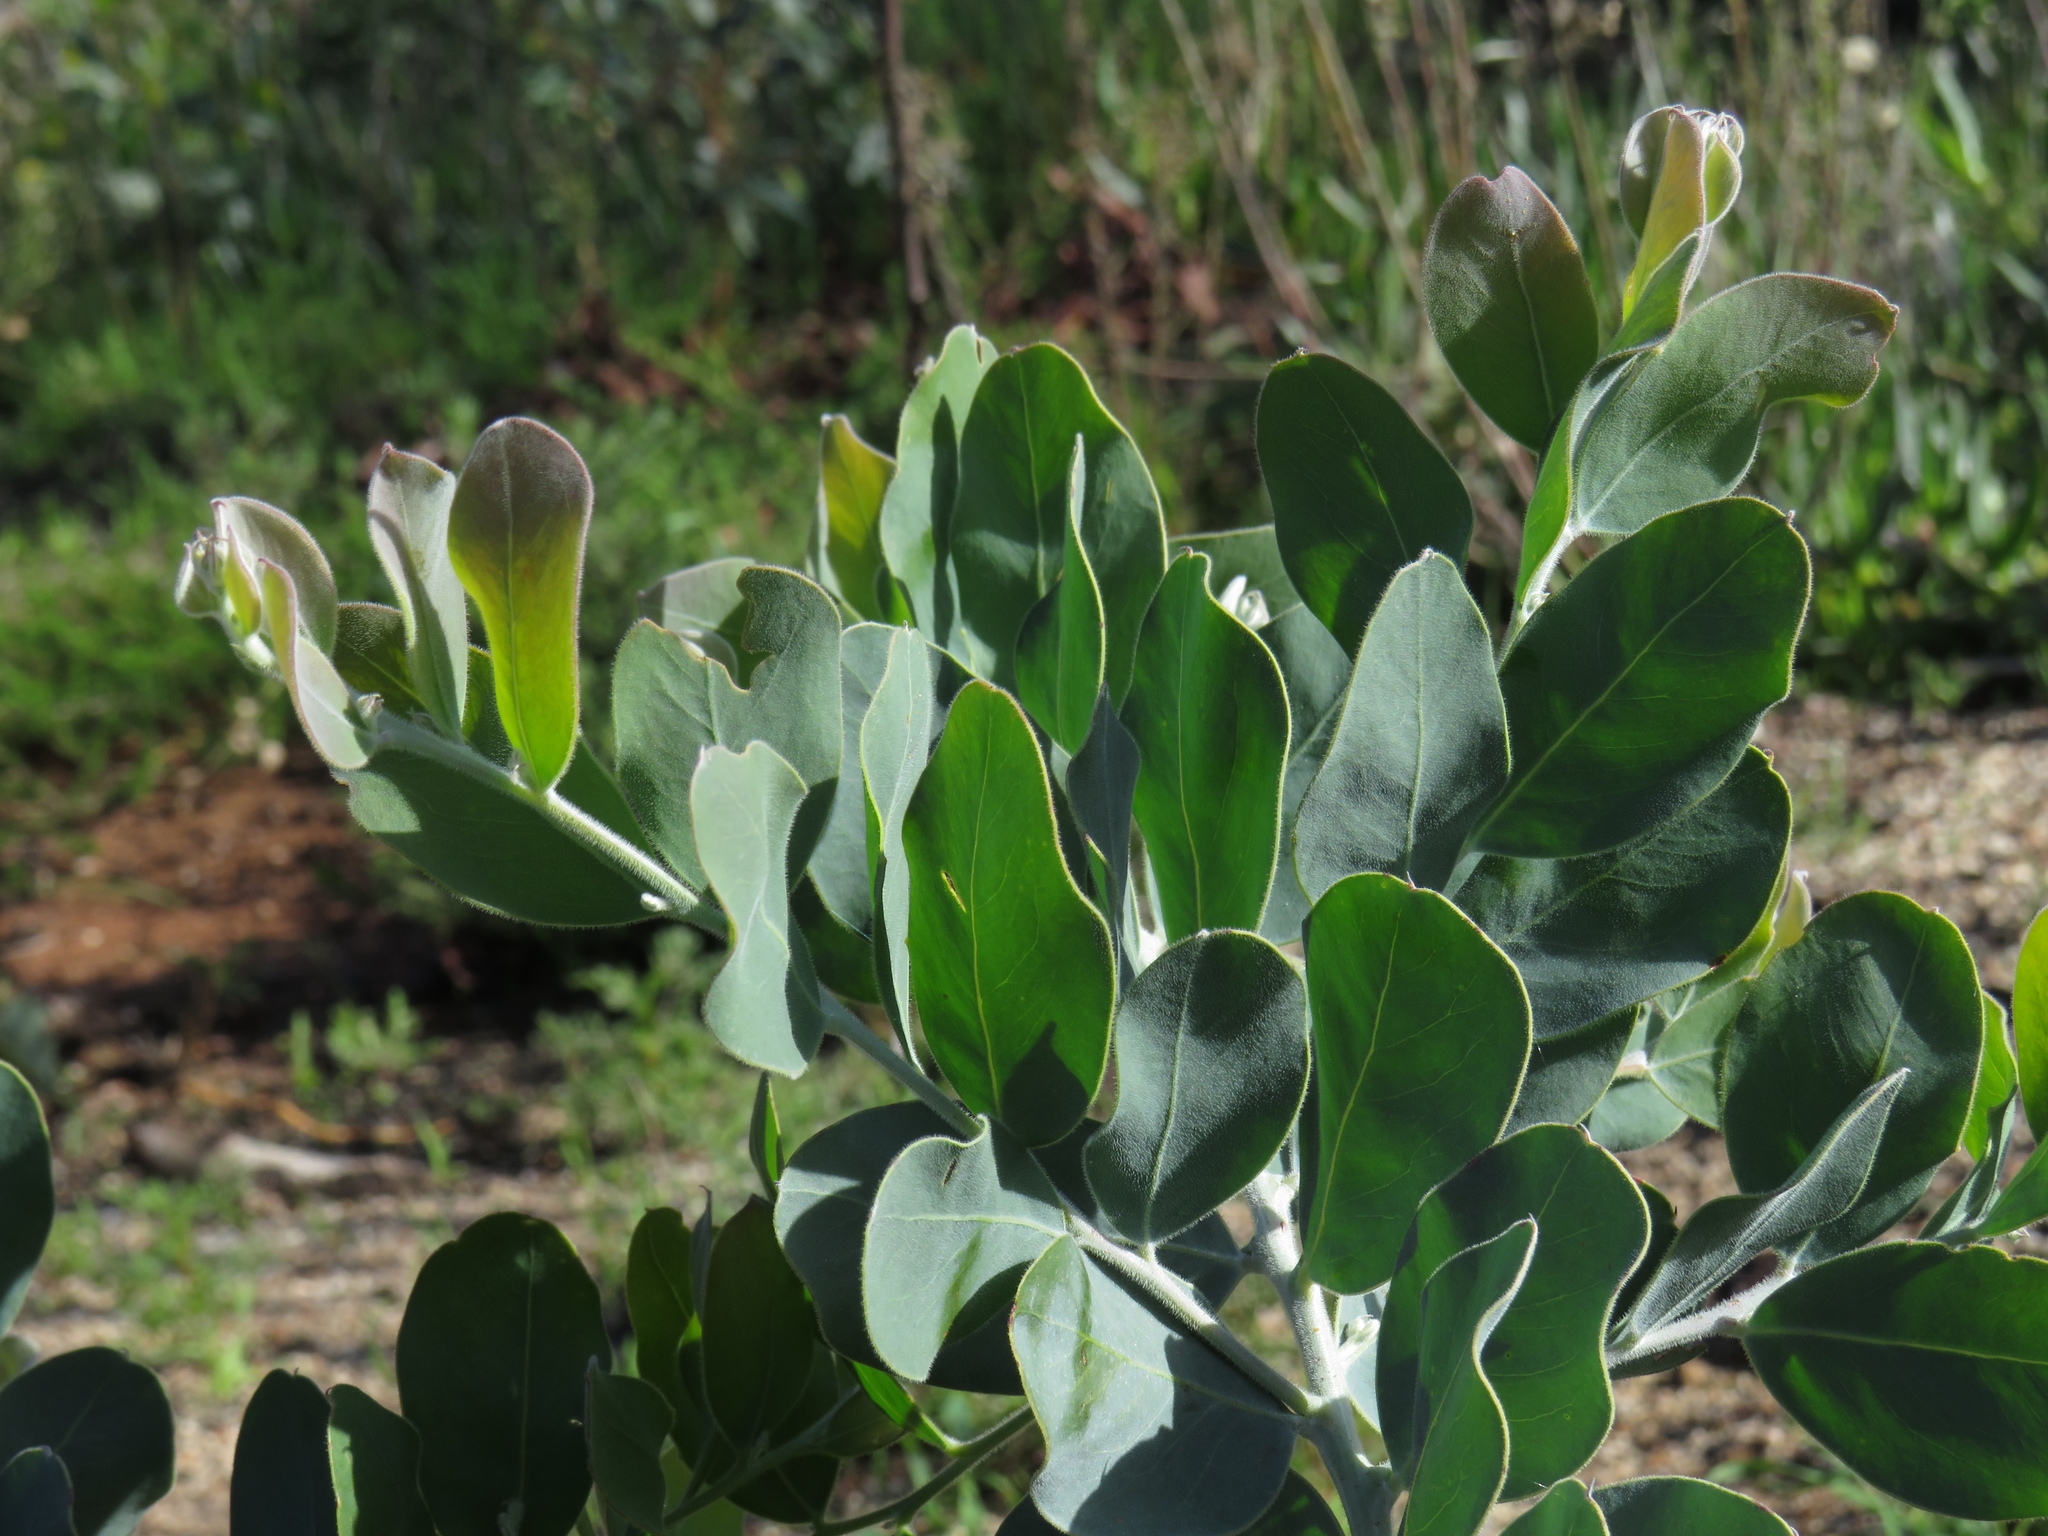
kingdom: Plantae
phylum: Tracheophyta
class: Magnoliopsida
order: Fabales
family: Fabaceae
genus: Acacia
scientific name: Acacia podalyriifolia
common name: Pearl wattle
